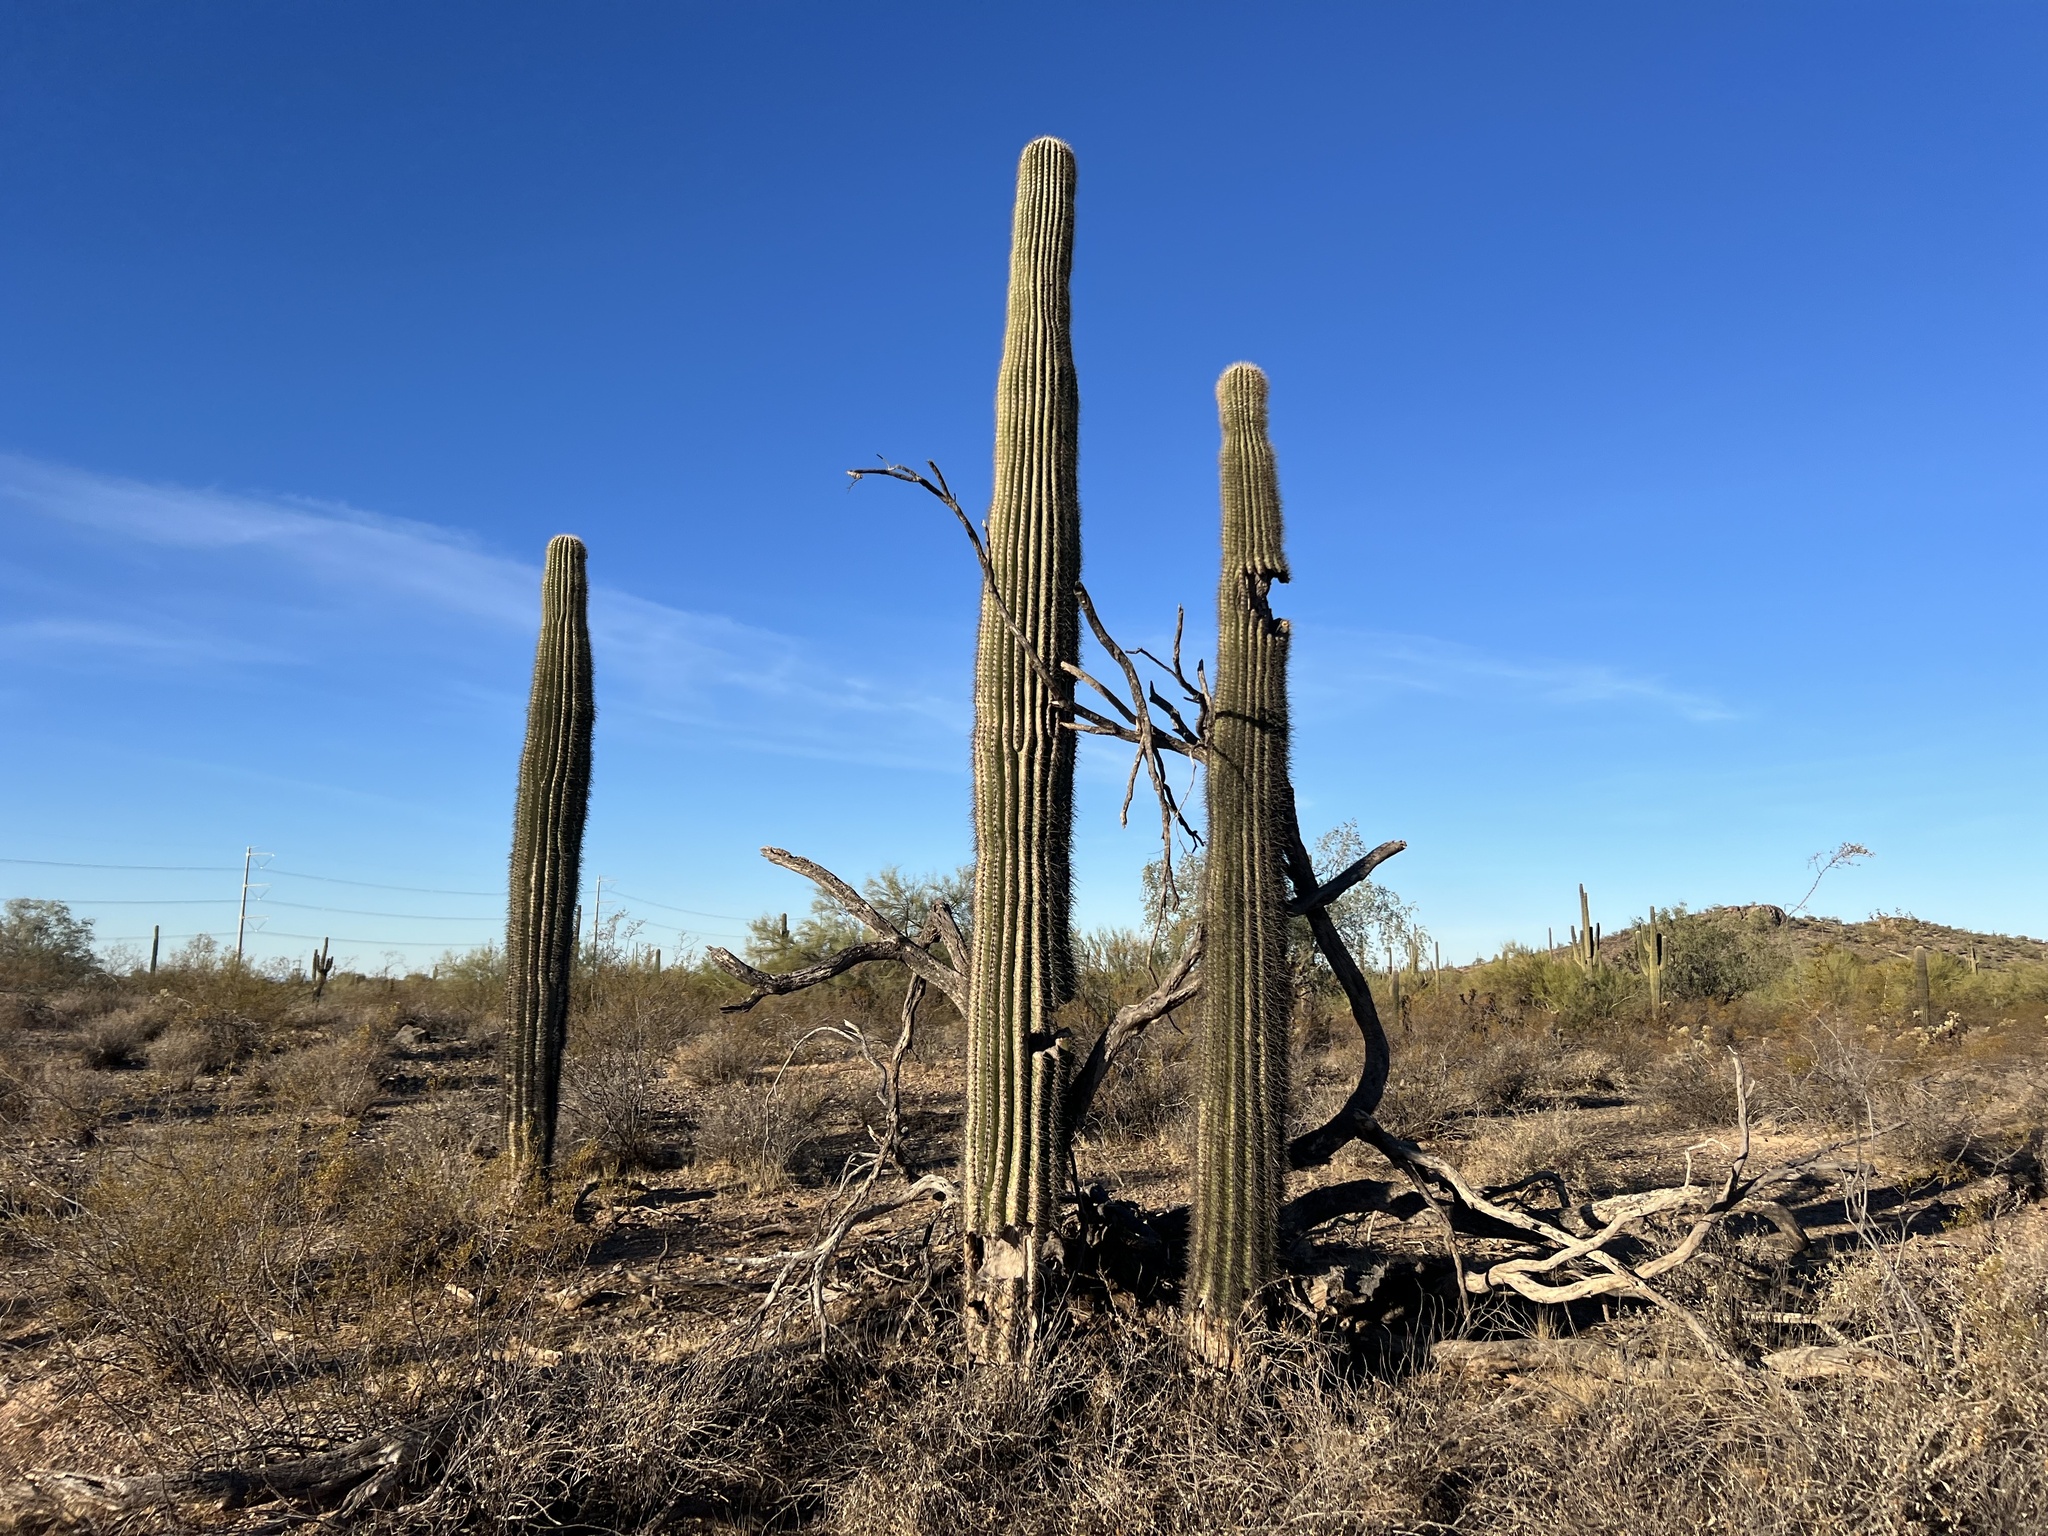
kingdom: Plantae
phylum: Tracheophyta
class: Magnoliopsida
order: Caryophyllales
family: Cactaceae
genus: Carnegiea
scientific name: Carnegiea gigantea
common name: Saguaro
